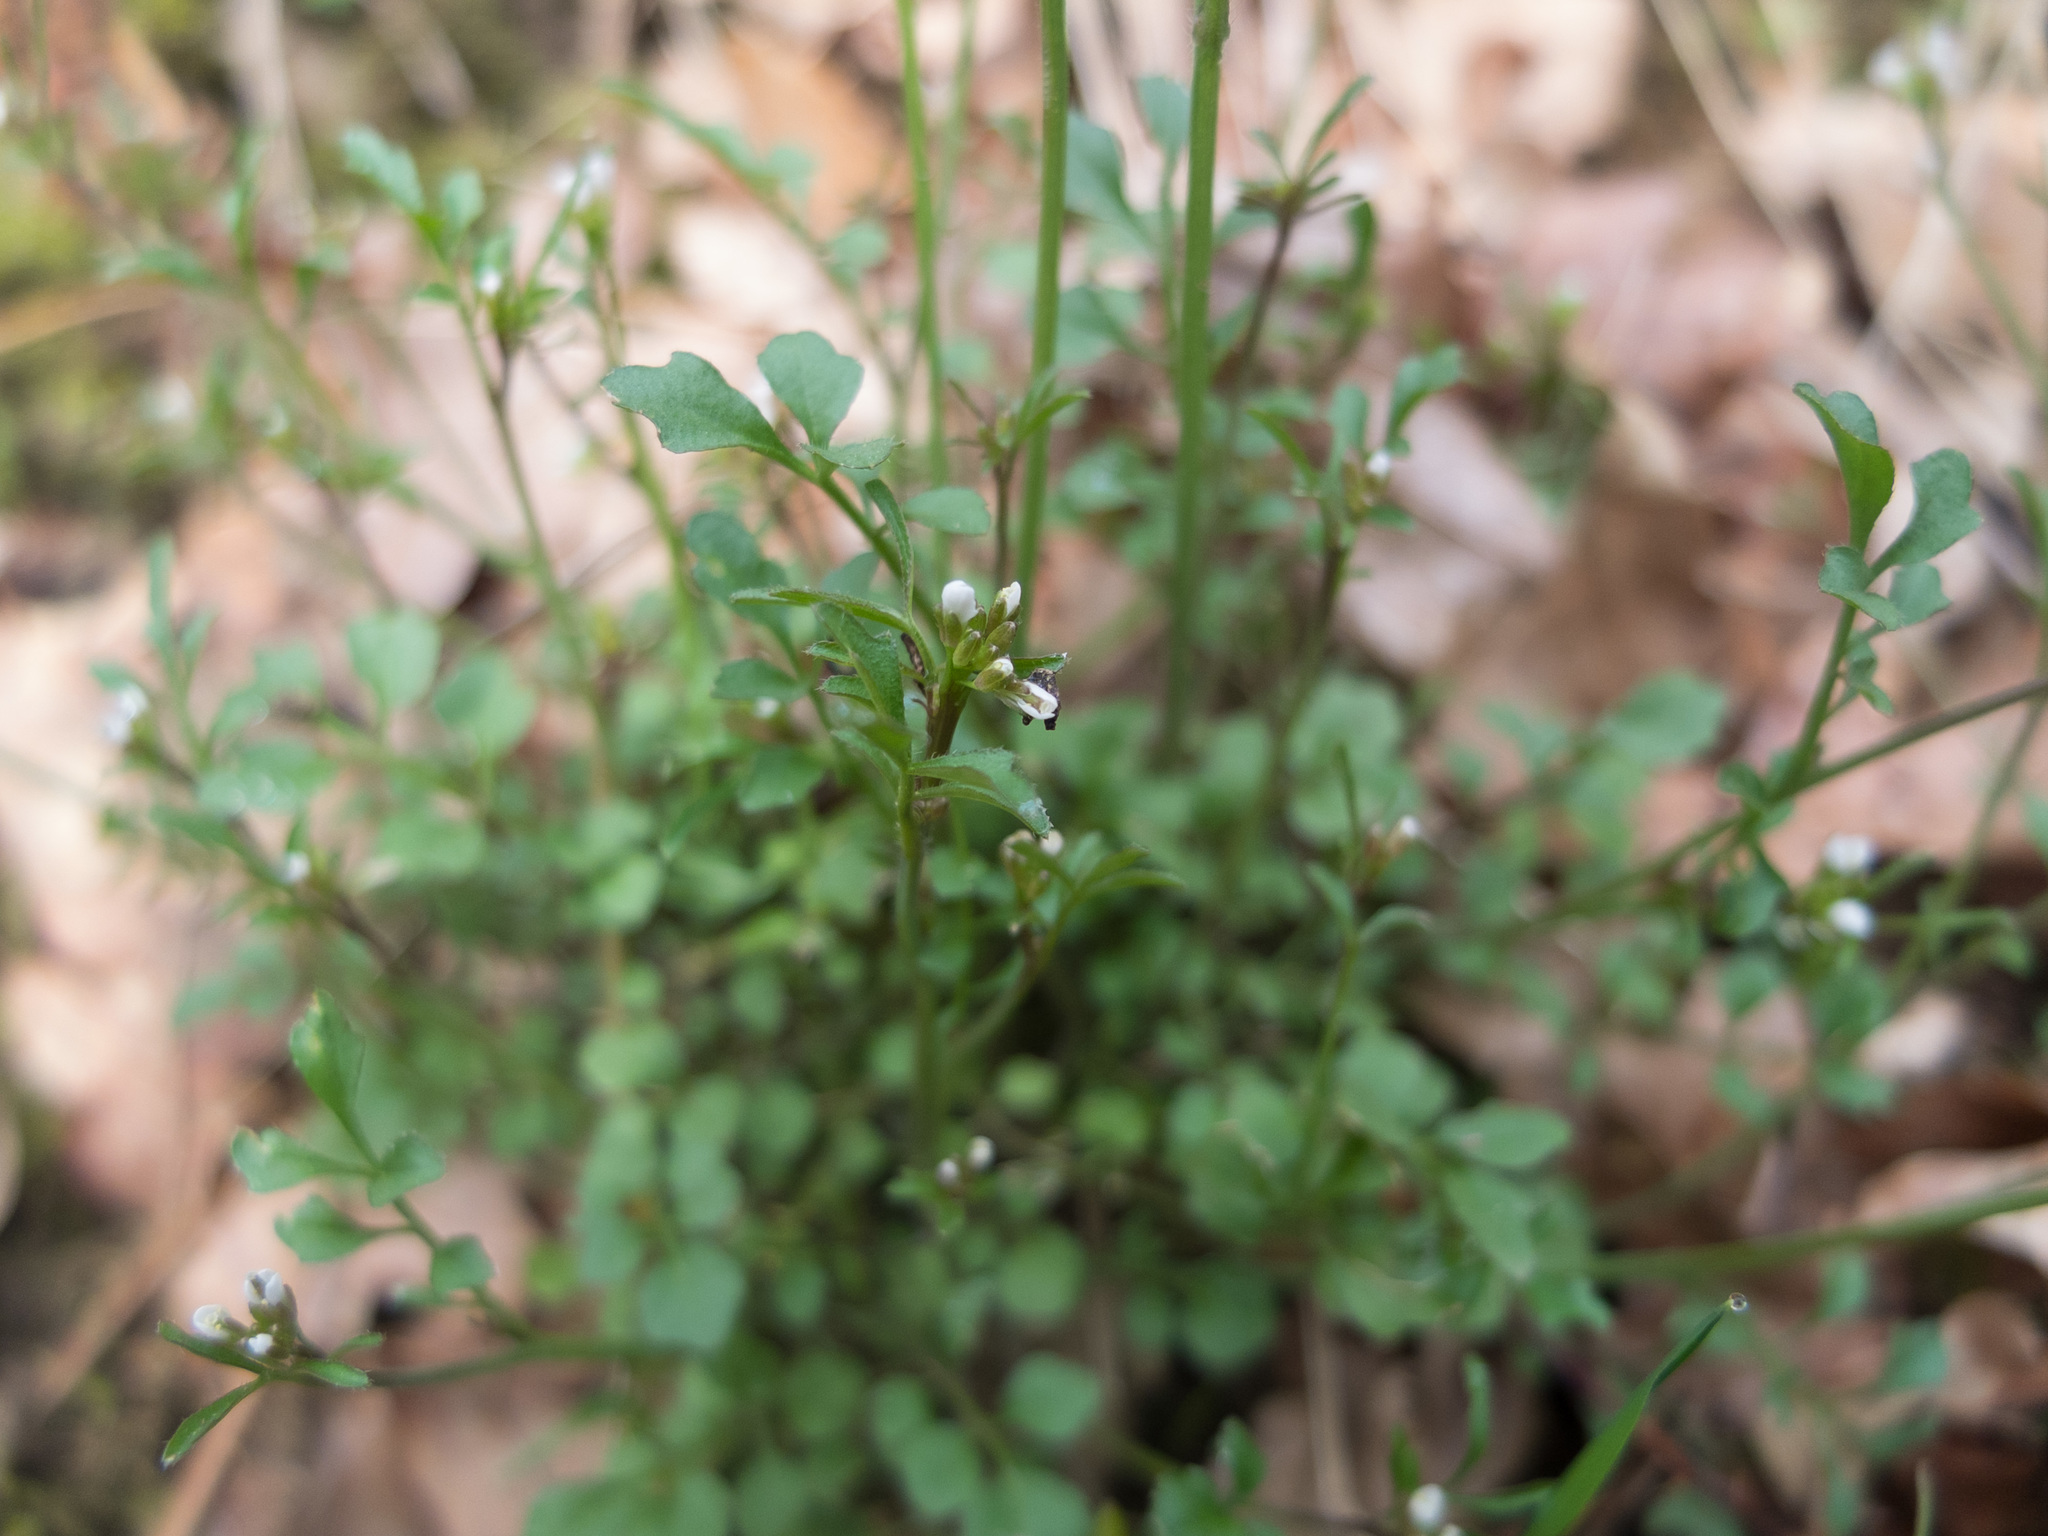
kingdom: Plantae
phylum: Tracheophyta
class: Magnoliopsida
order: Brassicales
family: Brassicaceae
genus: Cardamine
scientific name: Cardamine hirsuta
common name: Hairy bittercress
